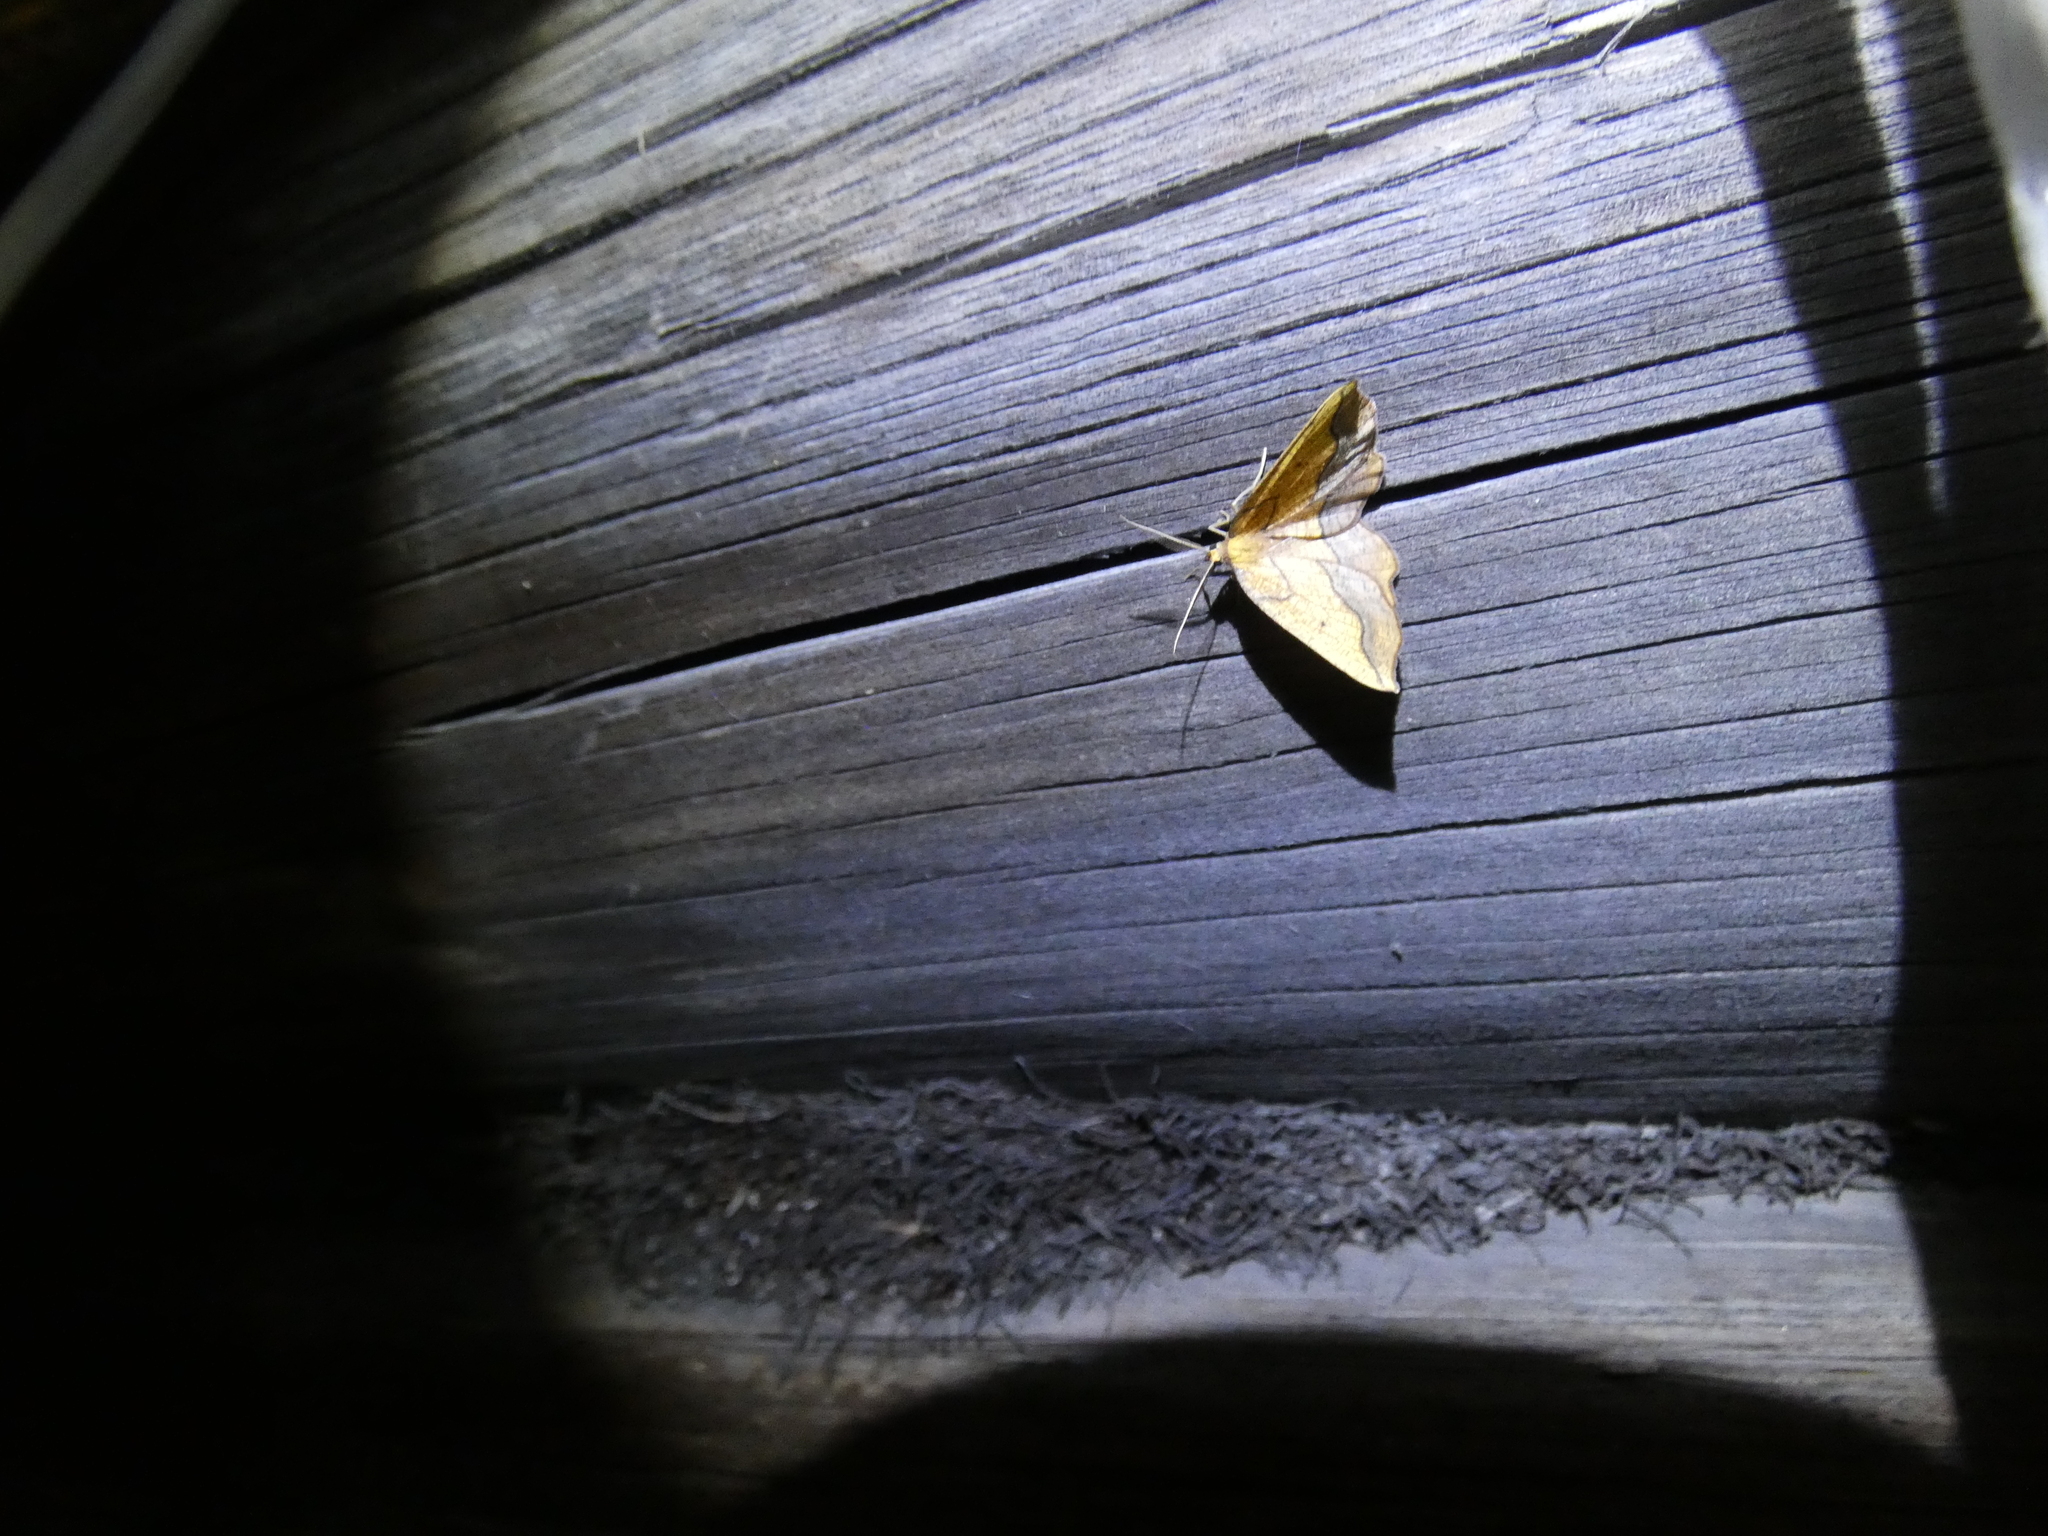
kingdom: Animalia
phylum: Arthropoda
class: Insecta
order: Lepidoptera
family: Geometridae
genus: Epione
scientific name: Epione repandaria
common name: Bordered beauty
